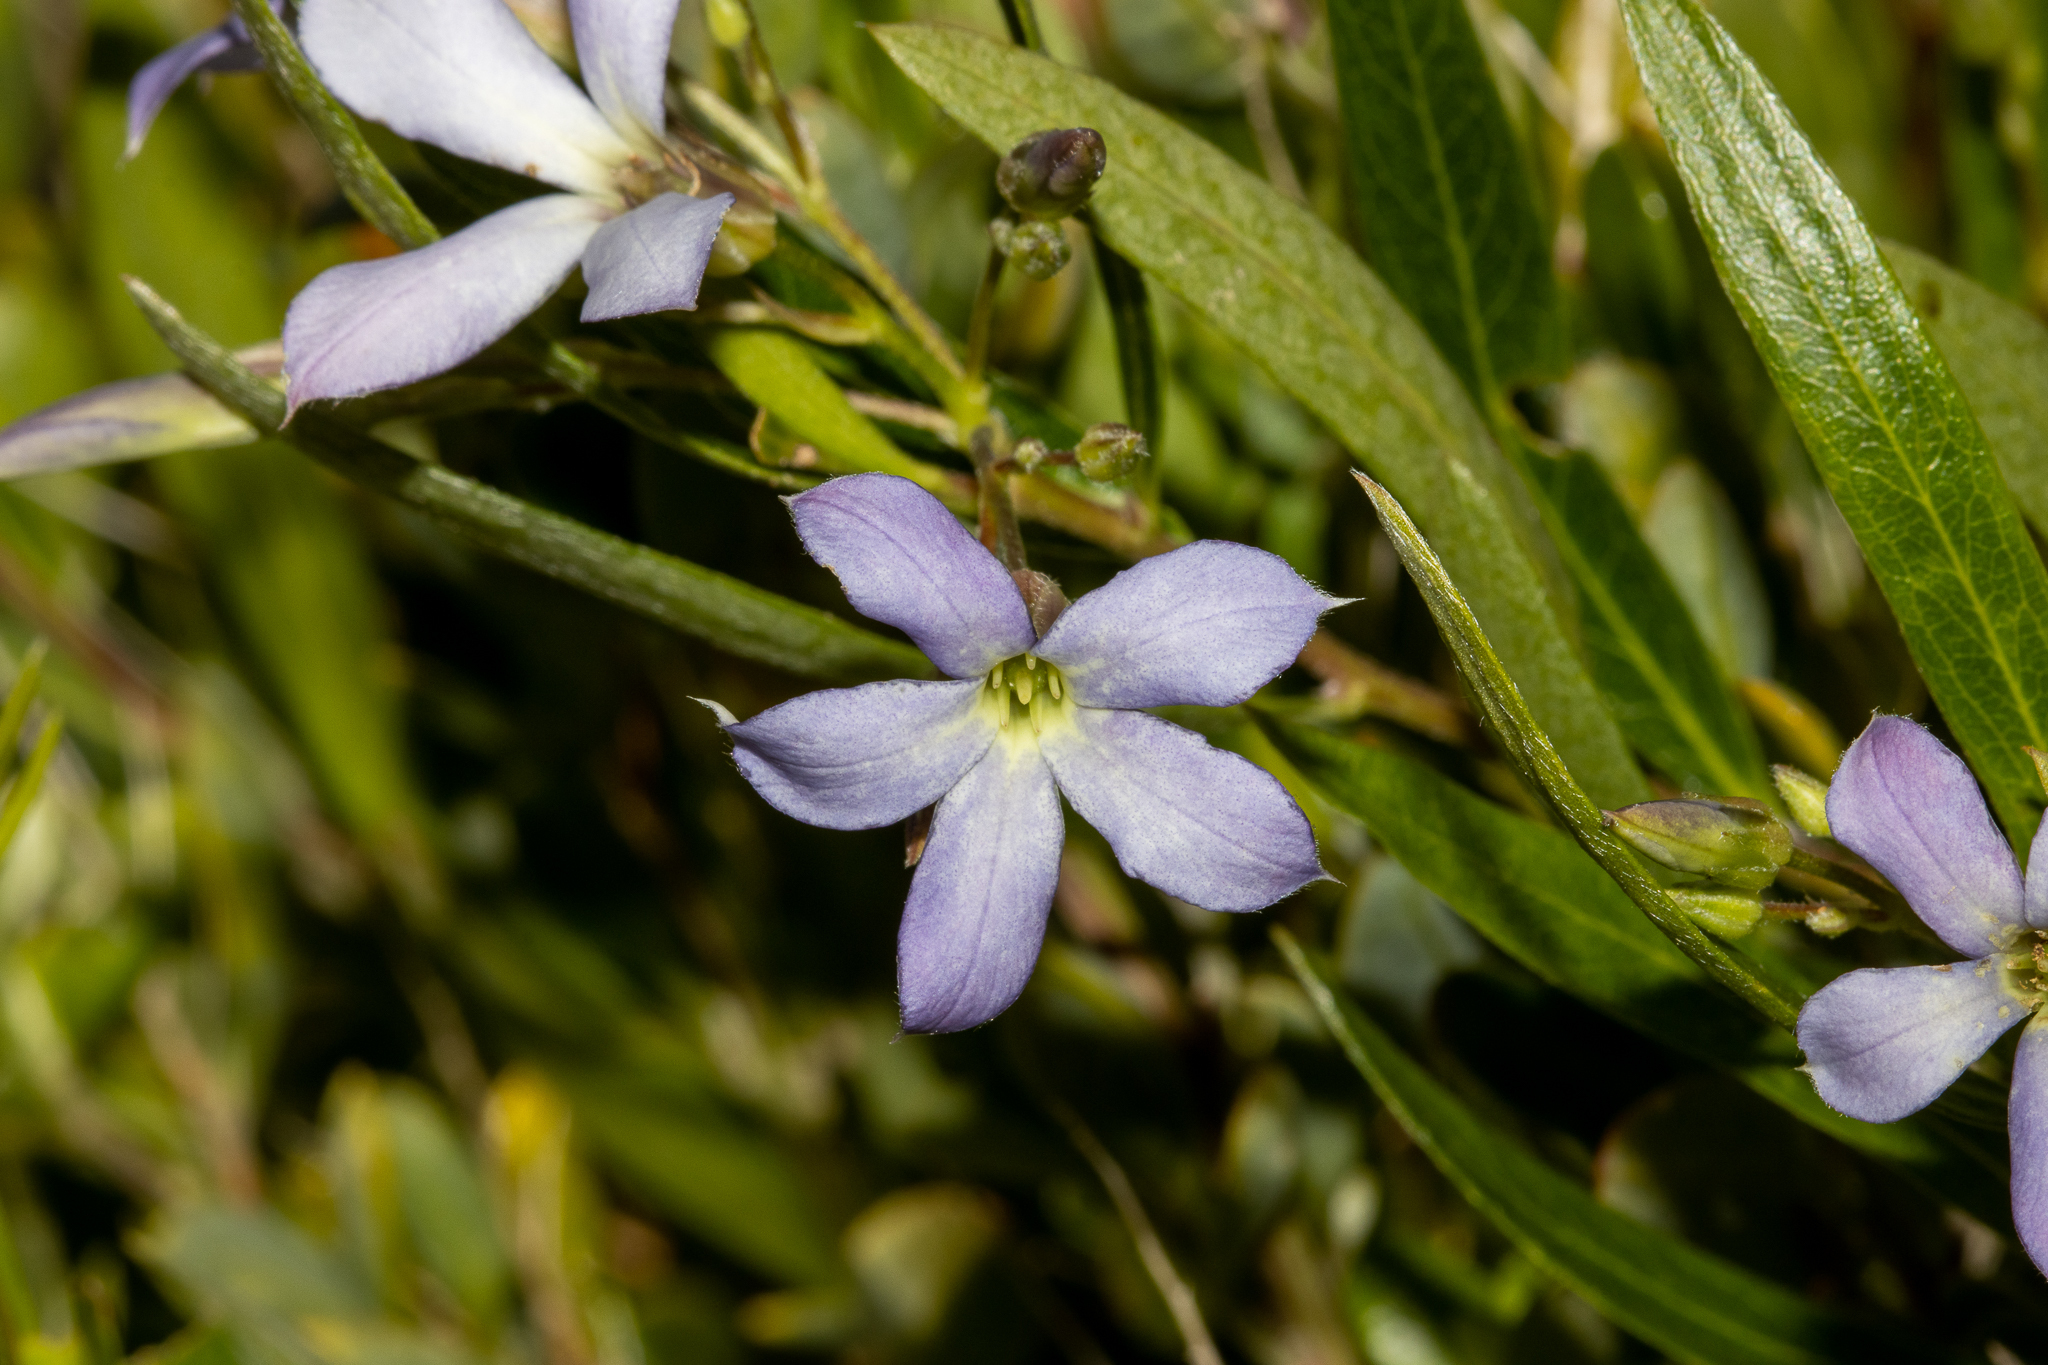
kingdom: Plantae
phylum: Tracheophyta
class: Magnoliopsida
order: Apiales
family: Pittosporaceae
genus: Billardiera
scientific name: Billardiera cymosa
